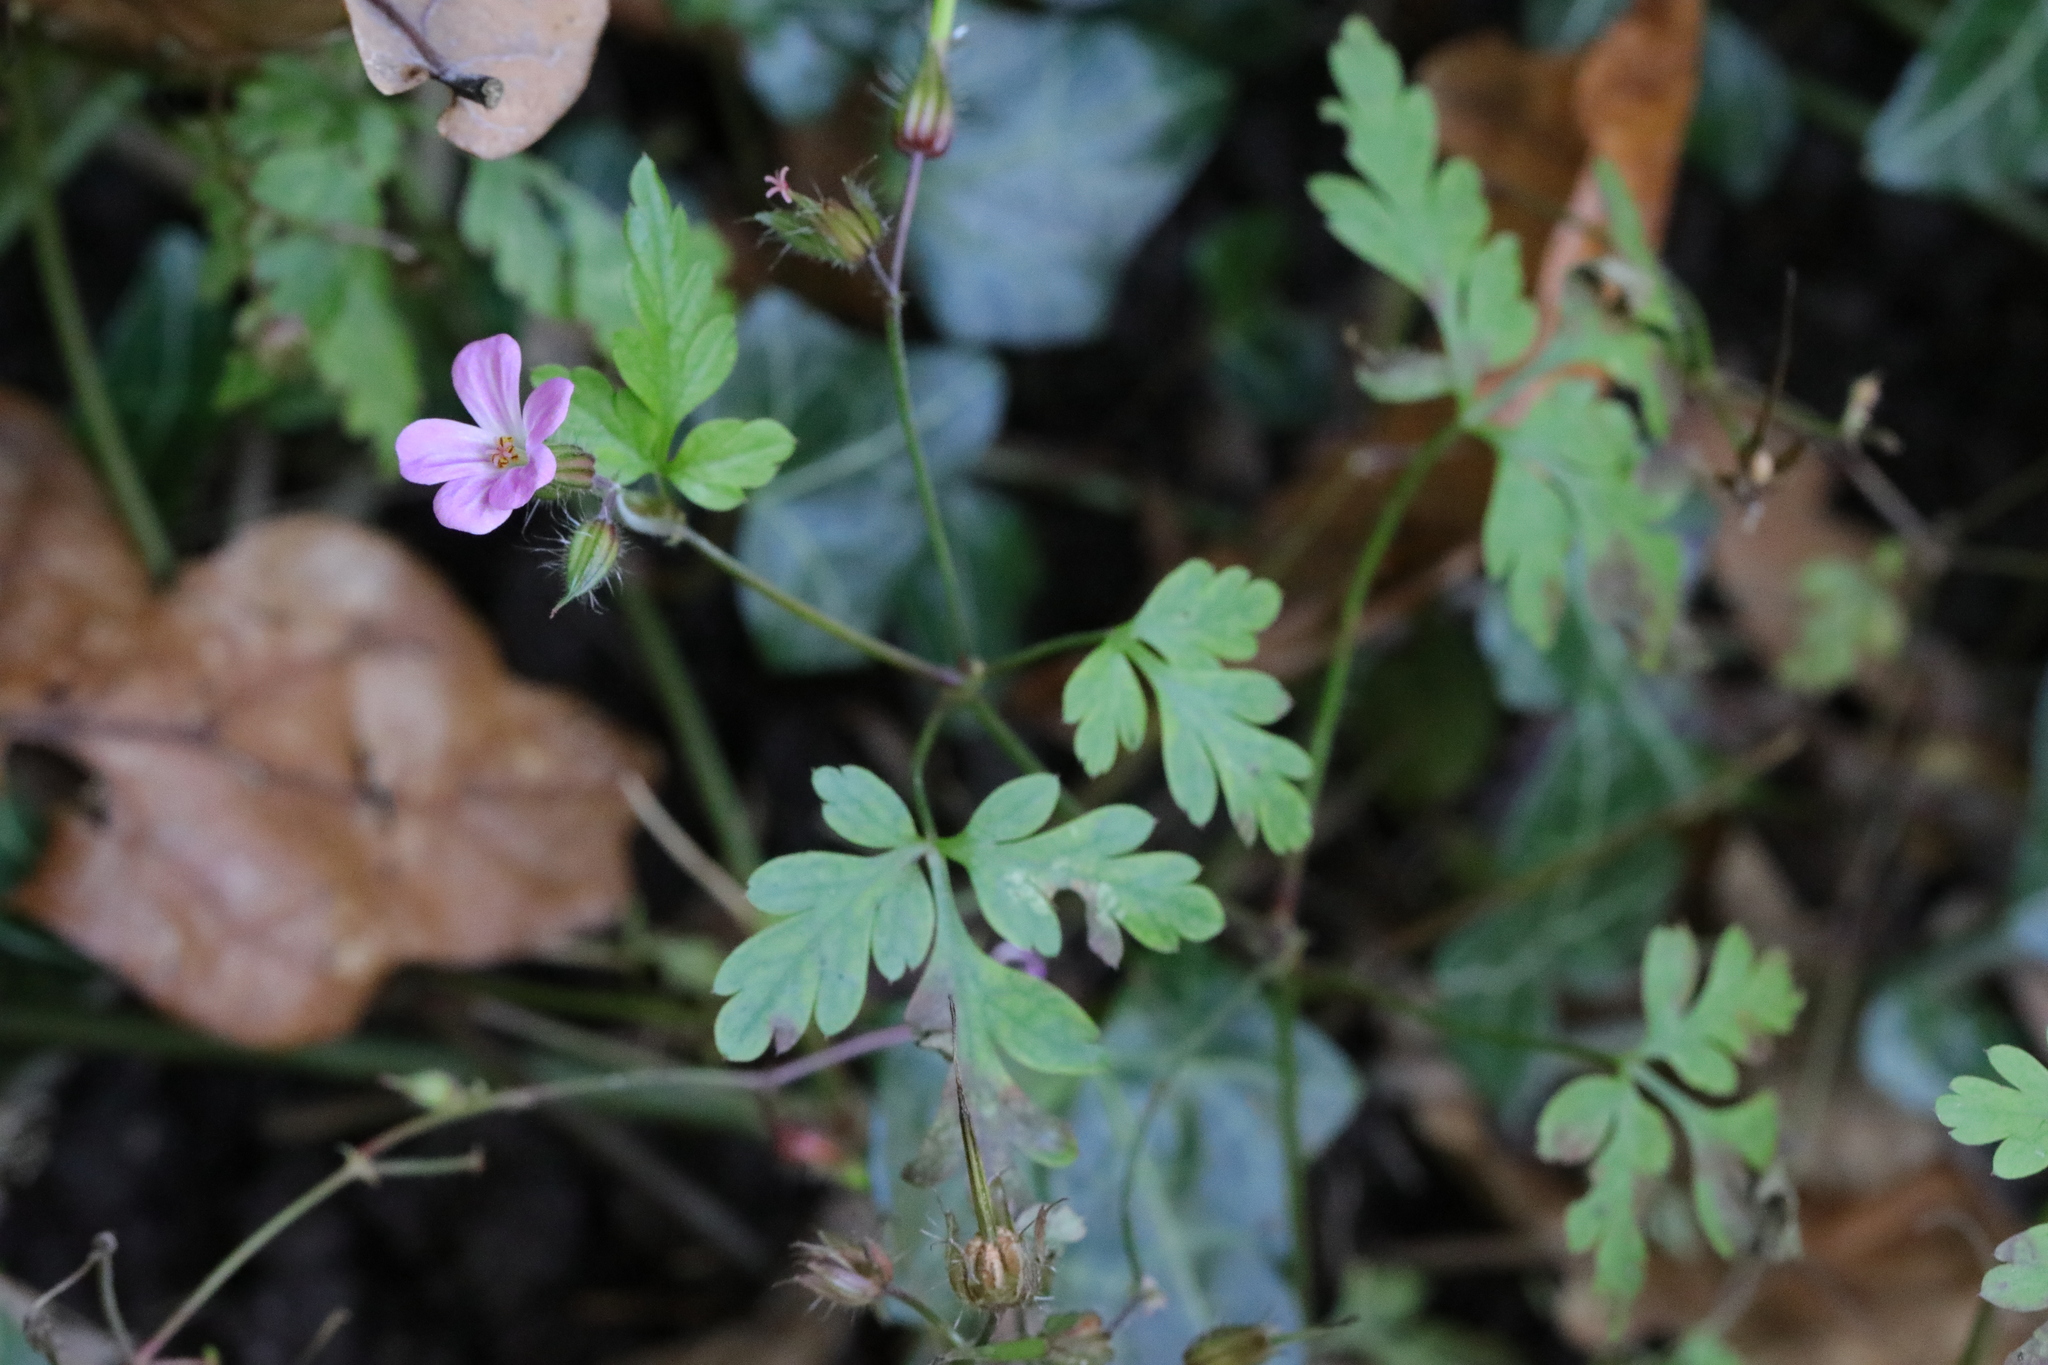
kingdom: Plantae
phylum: Tracheophyta
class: Magnoliopsida
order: Geraniales
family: Geraniaceae
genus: Geranium
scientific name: Geranium robertianum
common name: Herb-robert
